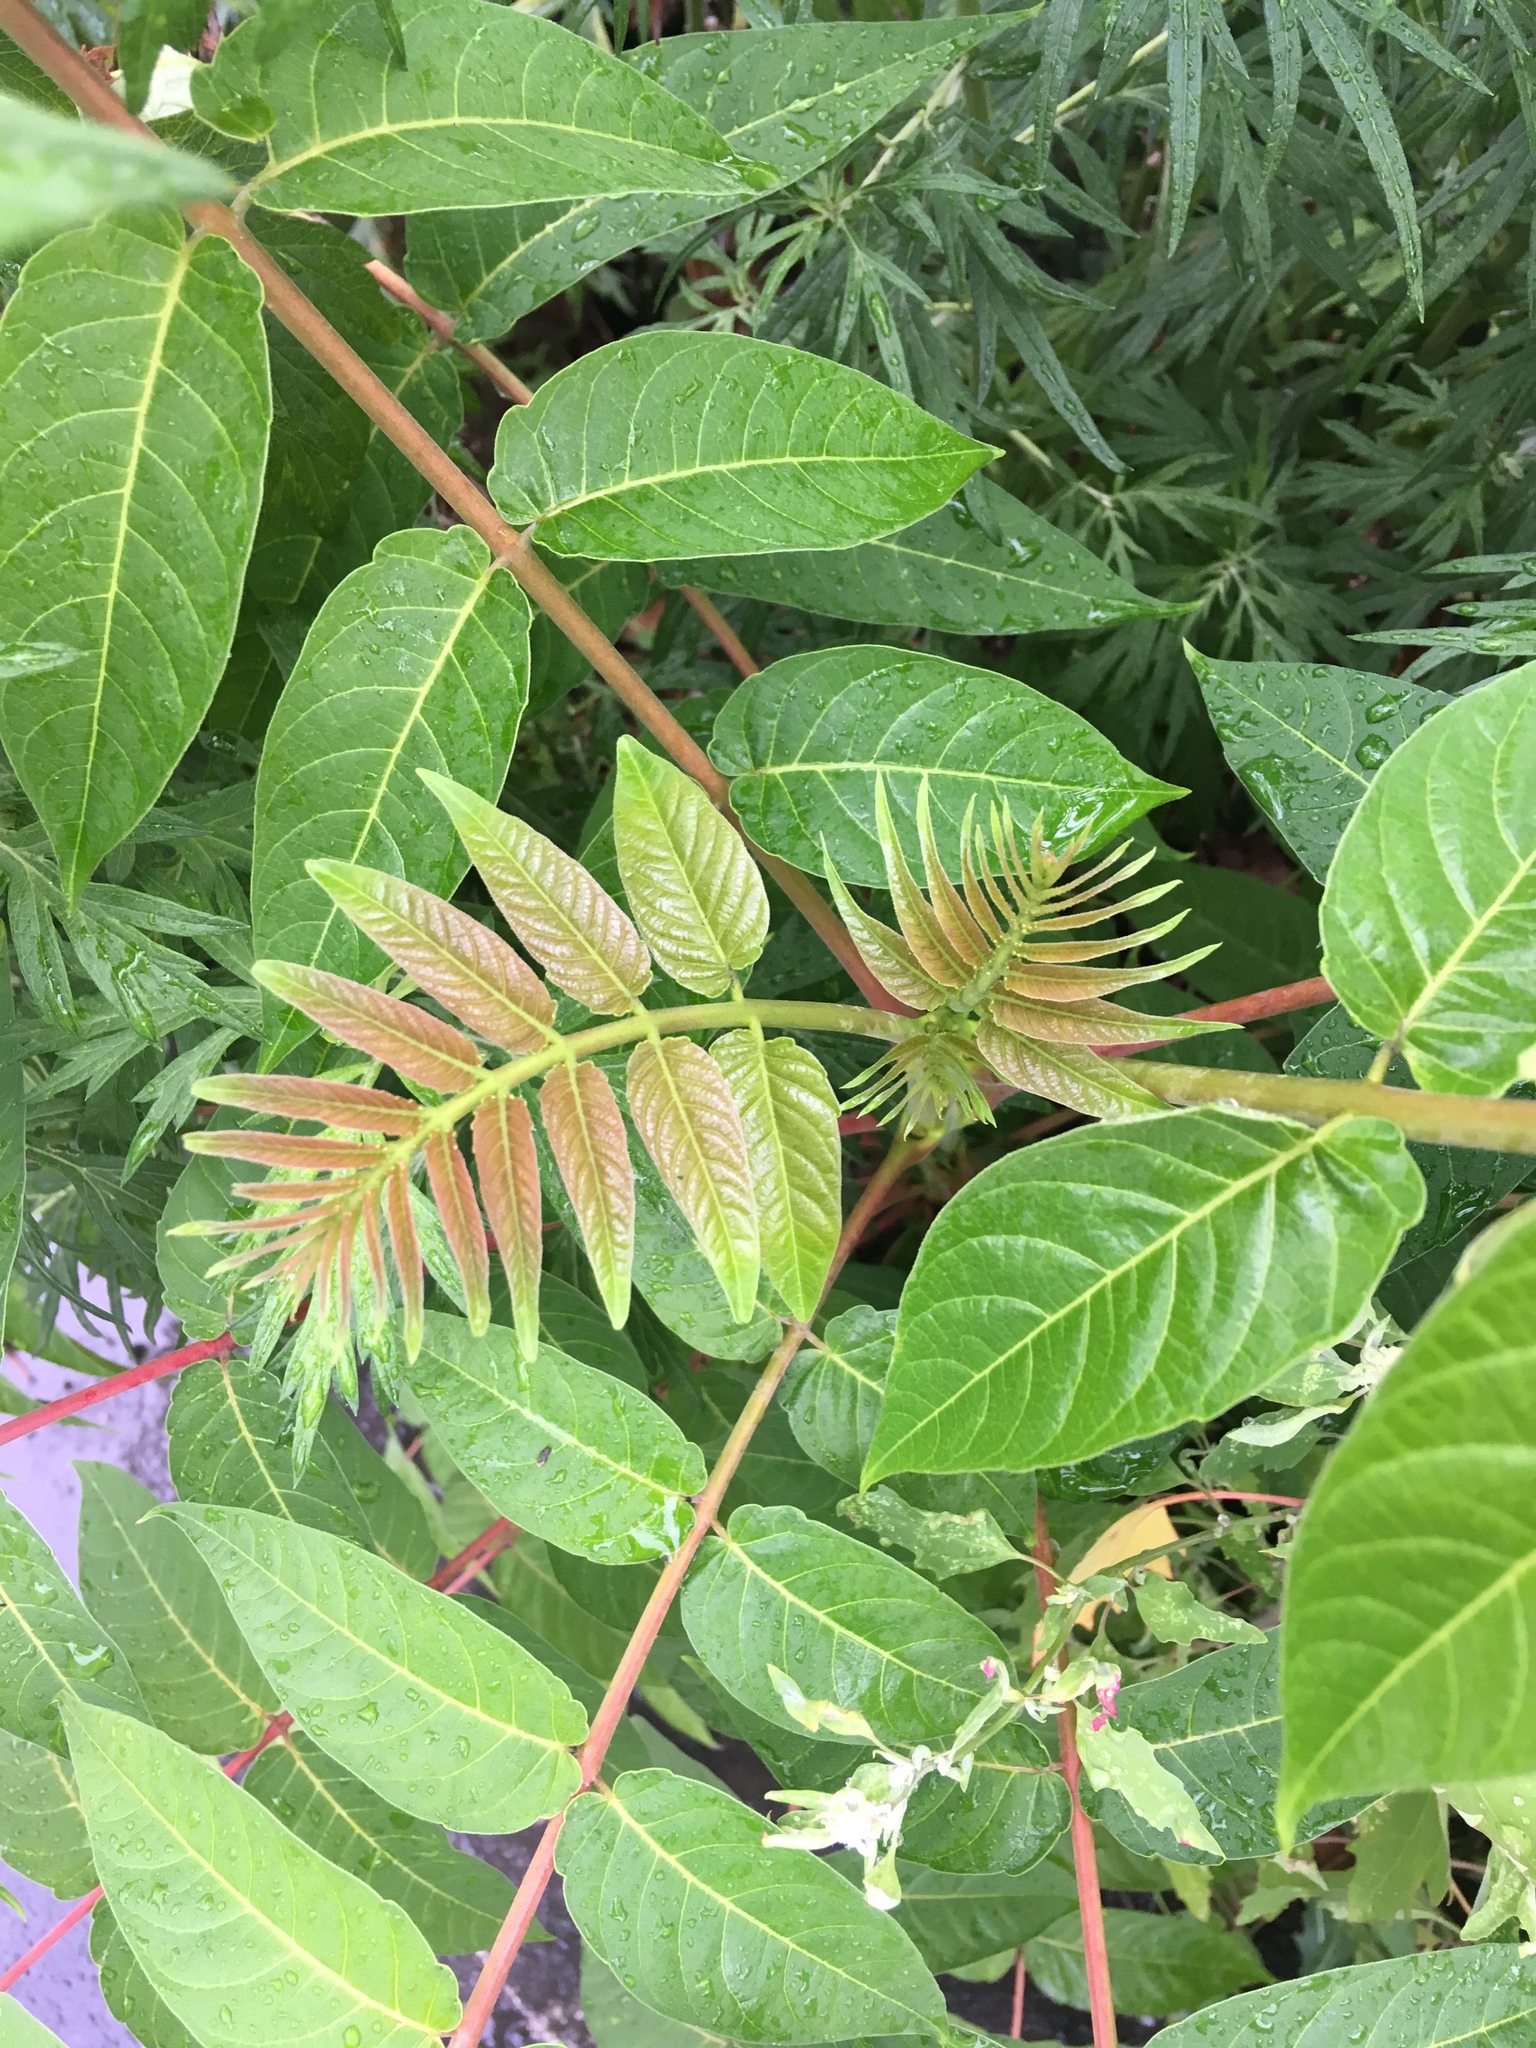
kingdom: Plantae
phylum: Tracheophyta
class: Magnoliopsida
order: Sapindales
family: Simaroubaceae
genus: Ailanthus
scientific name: Ailanthus altissima
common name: Tree-of-heaven
